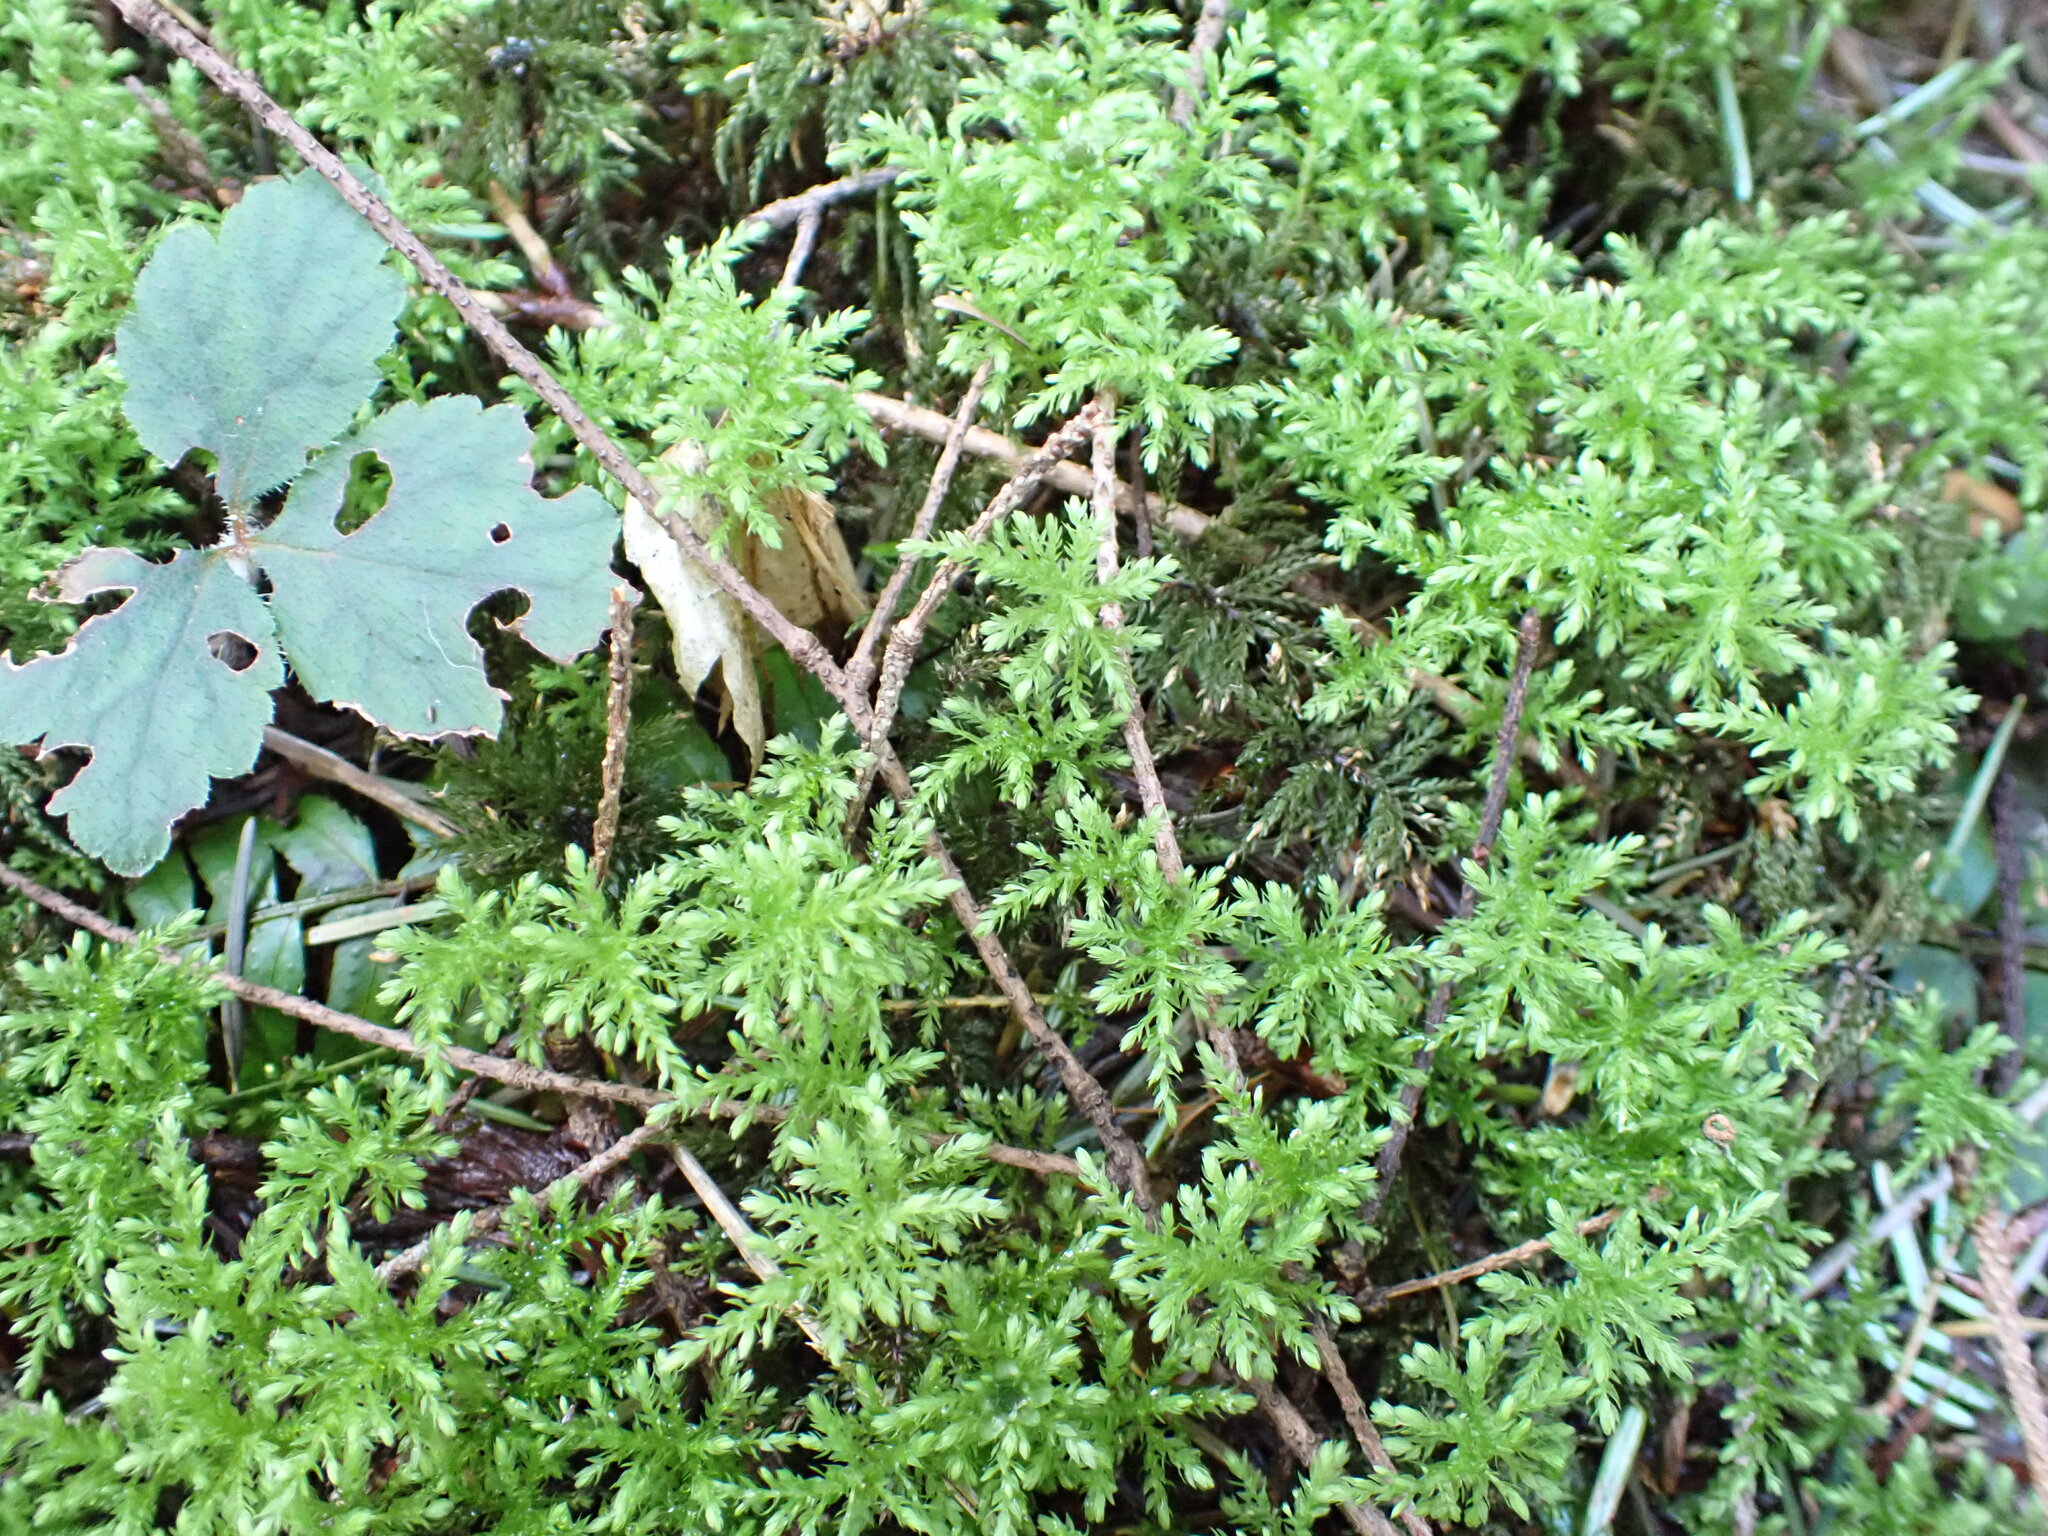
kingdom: Plantae
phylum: Bryophyta
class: Bryopsida
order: Bryales
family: Mniaceae
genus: Leucolepis
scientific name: Leucolepis acanthoneura
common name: Leucolepis umbrella moss
